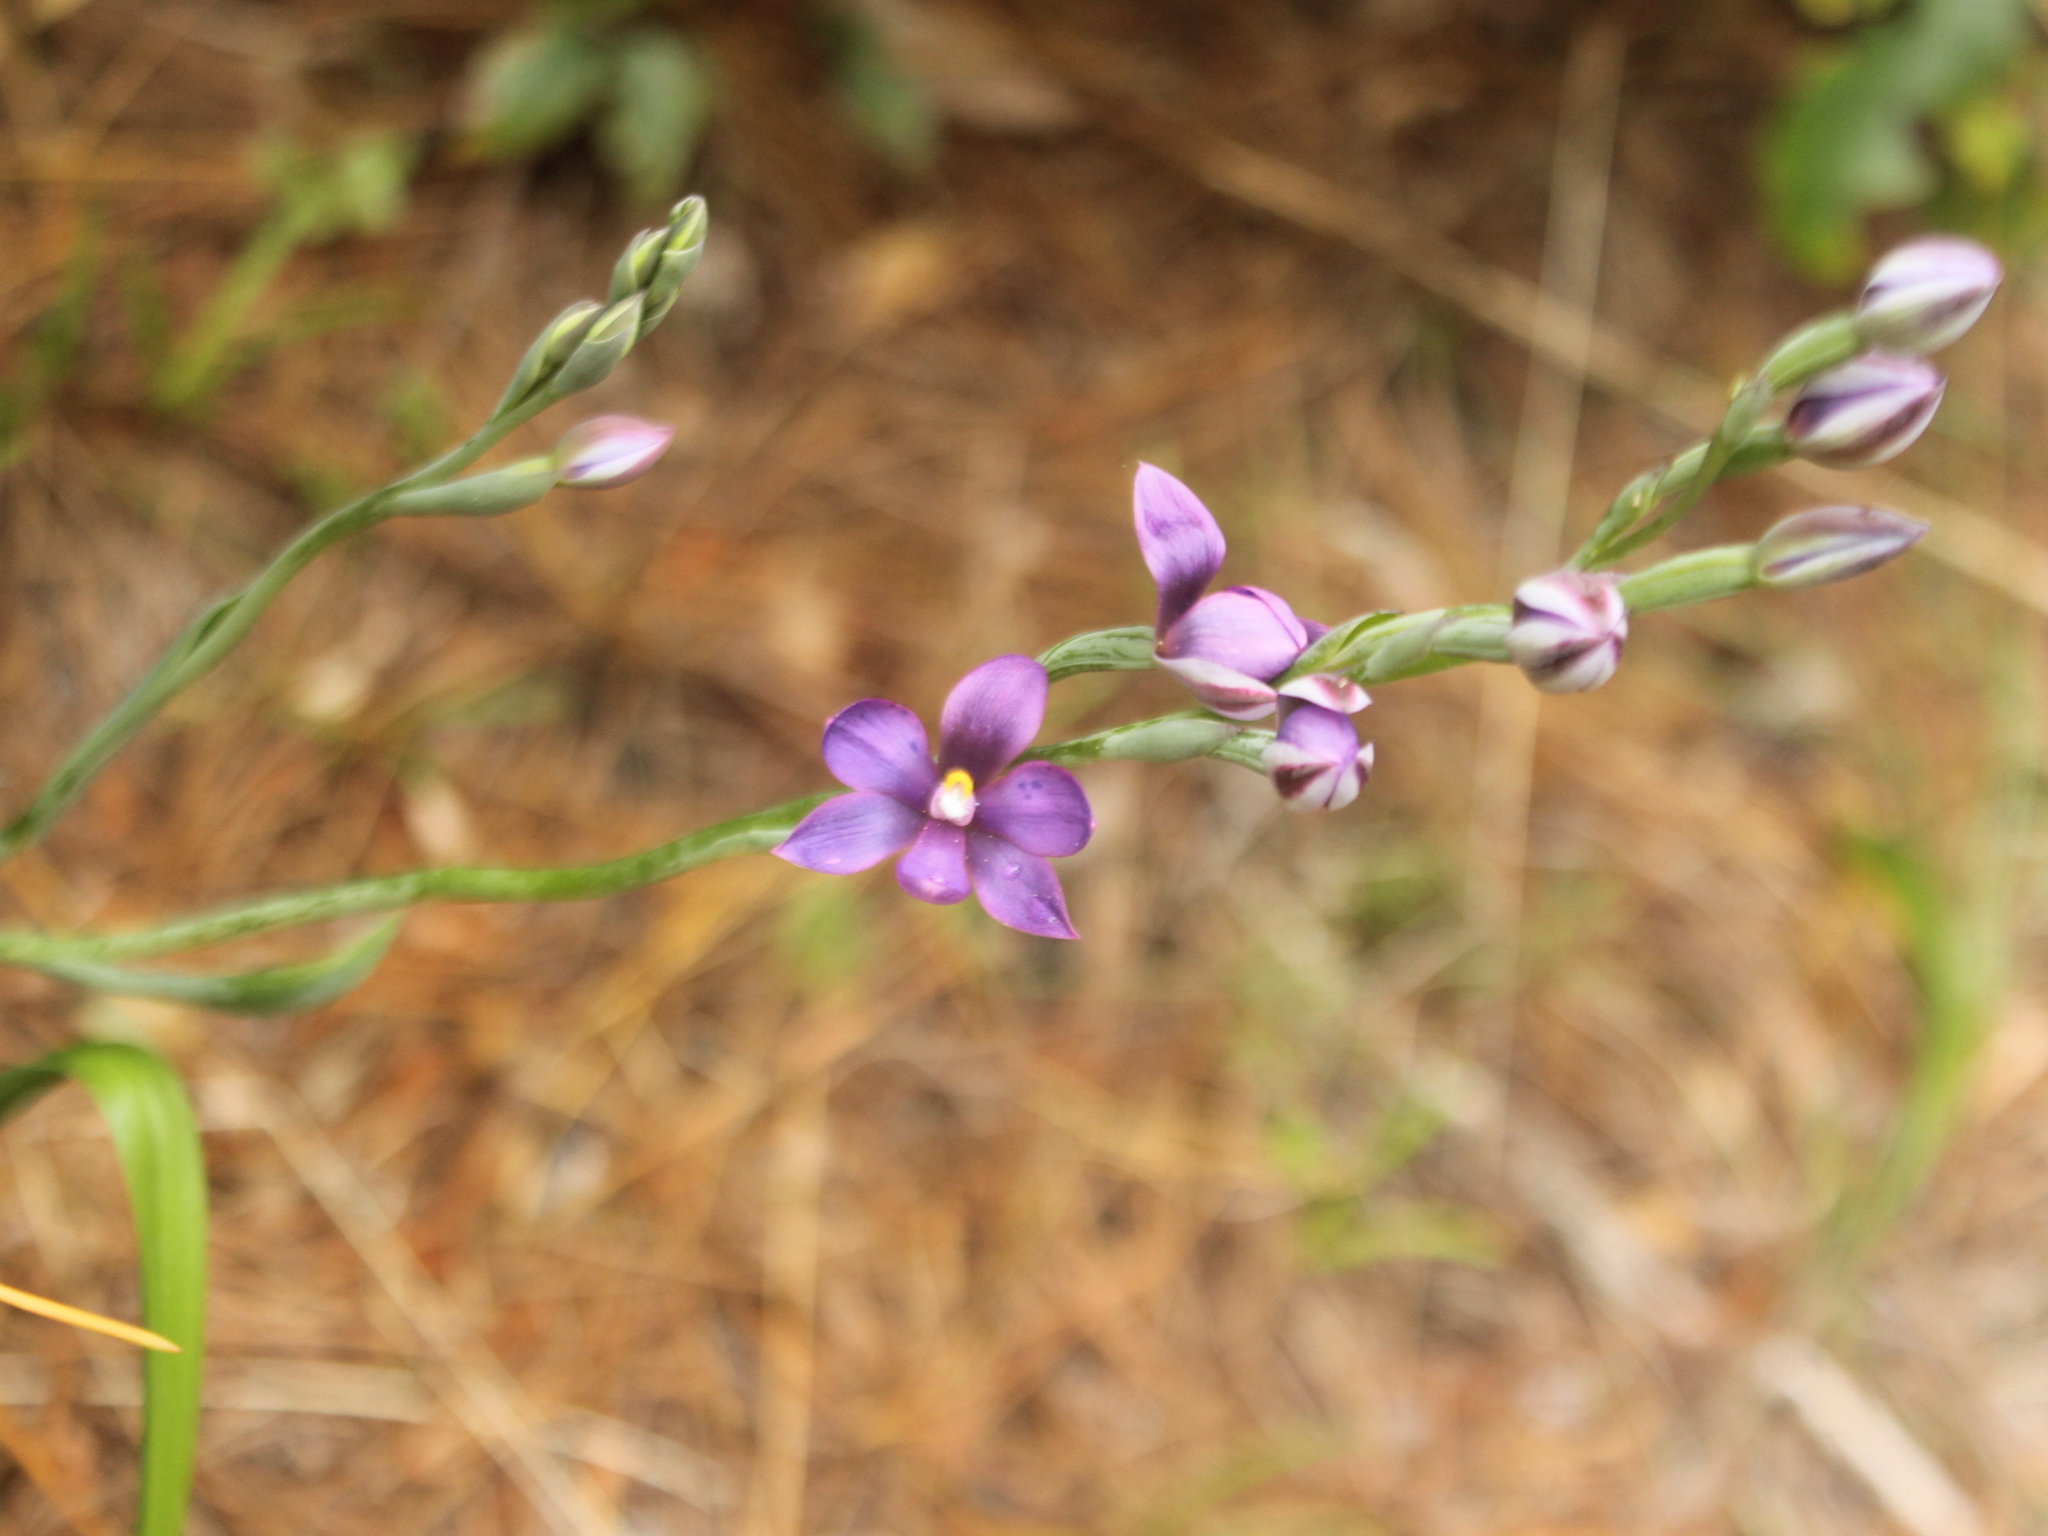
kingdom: Plantae
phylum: Tracheophyta
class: Liliopsida
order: Asparagales
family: Orchidaceae
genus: Thelymitra
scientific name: Thelymitra nervosa
